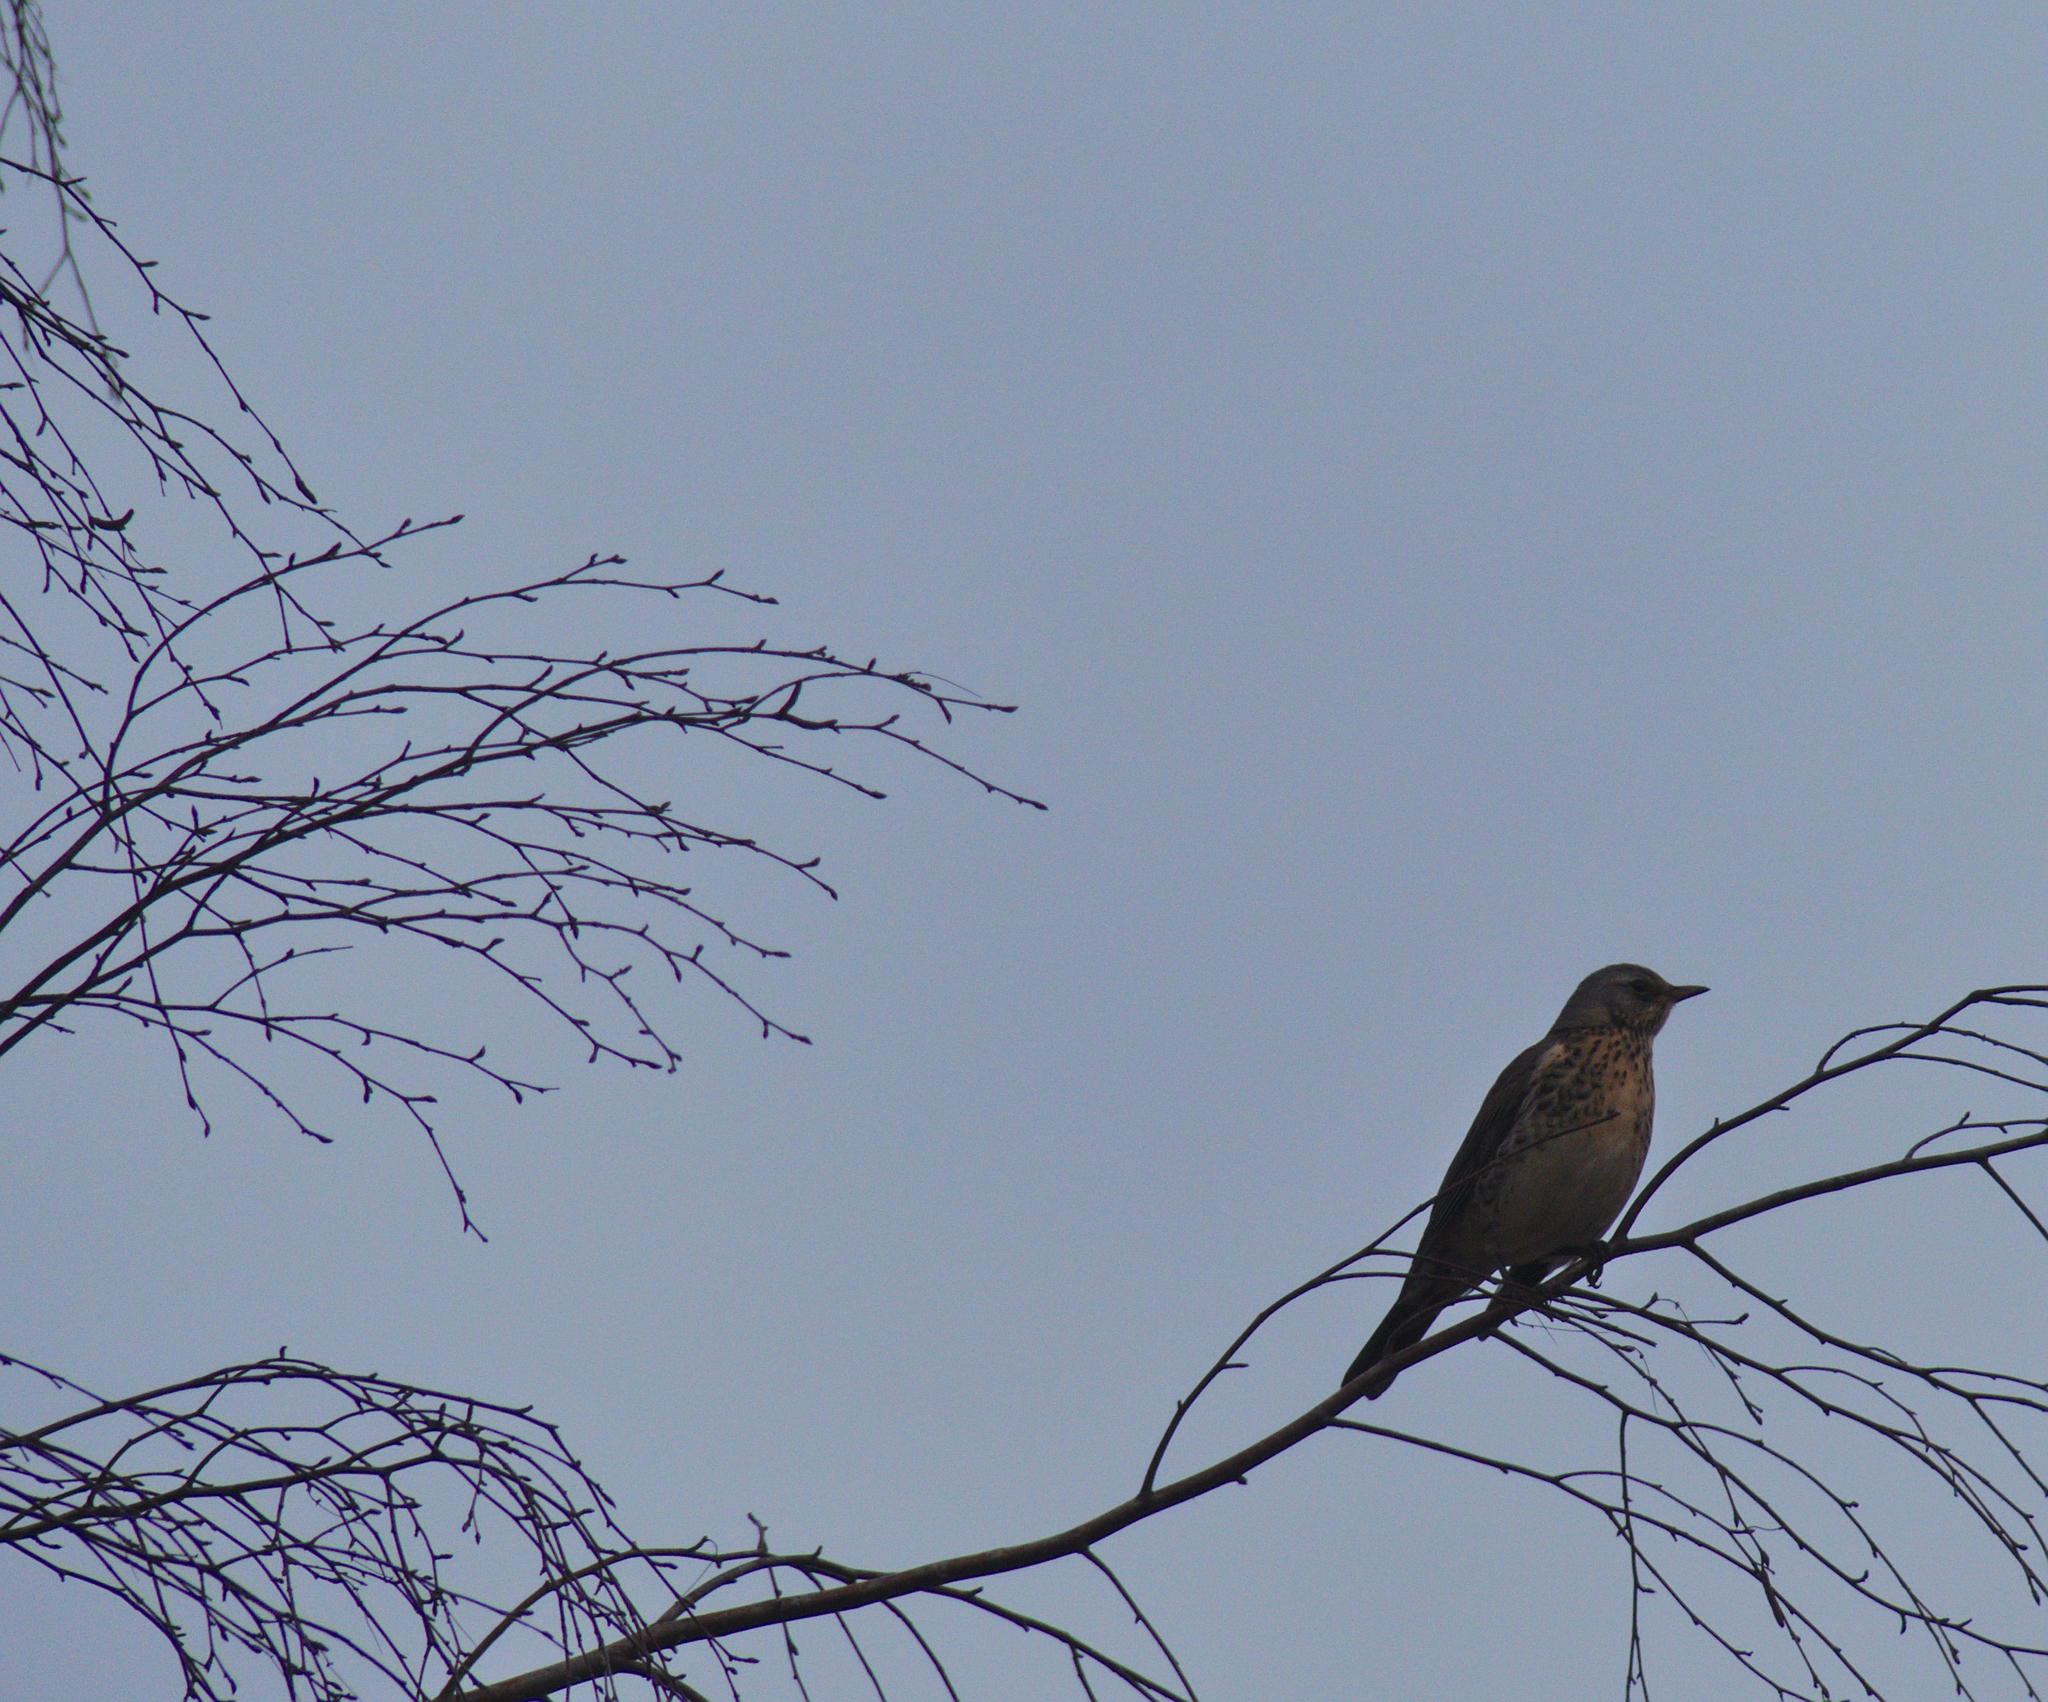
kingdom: Animalia
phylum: Chordata
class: Aves
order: Passeriformes
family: Turdidae
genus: Turdus
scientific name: Turdus pilaris
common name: Fieldfare
